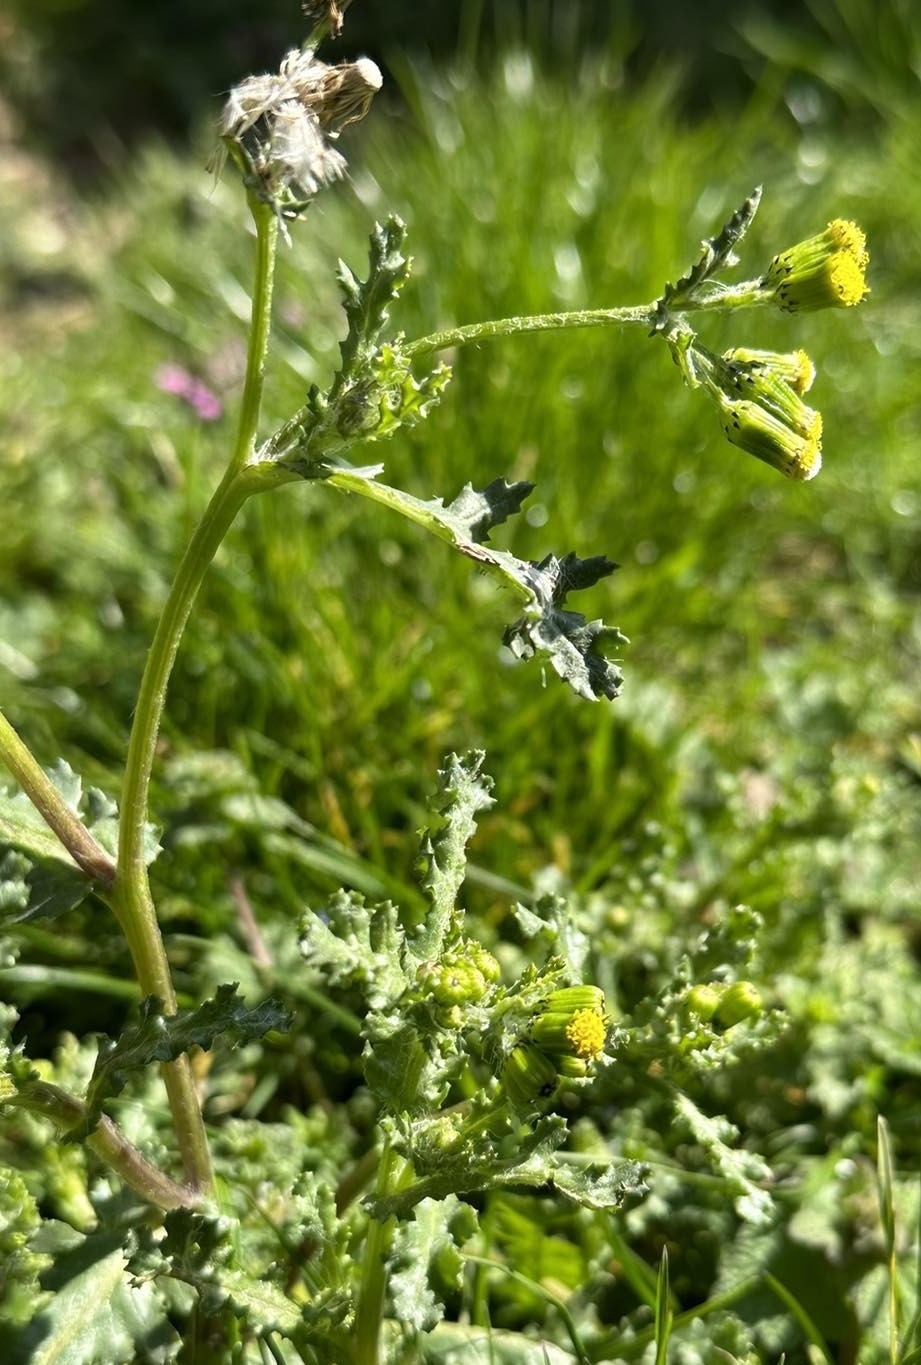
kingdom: Plantae
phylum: Tracheophyta
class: Magnoliopsida
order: Asterales
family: Asteraceae
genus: Senecio
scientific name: Senecio vulgaris
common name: Old-man-in-the-spring
